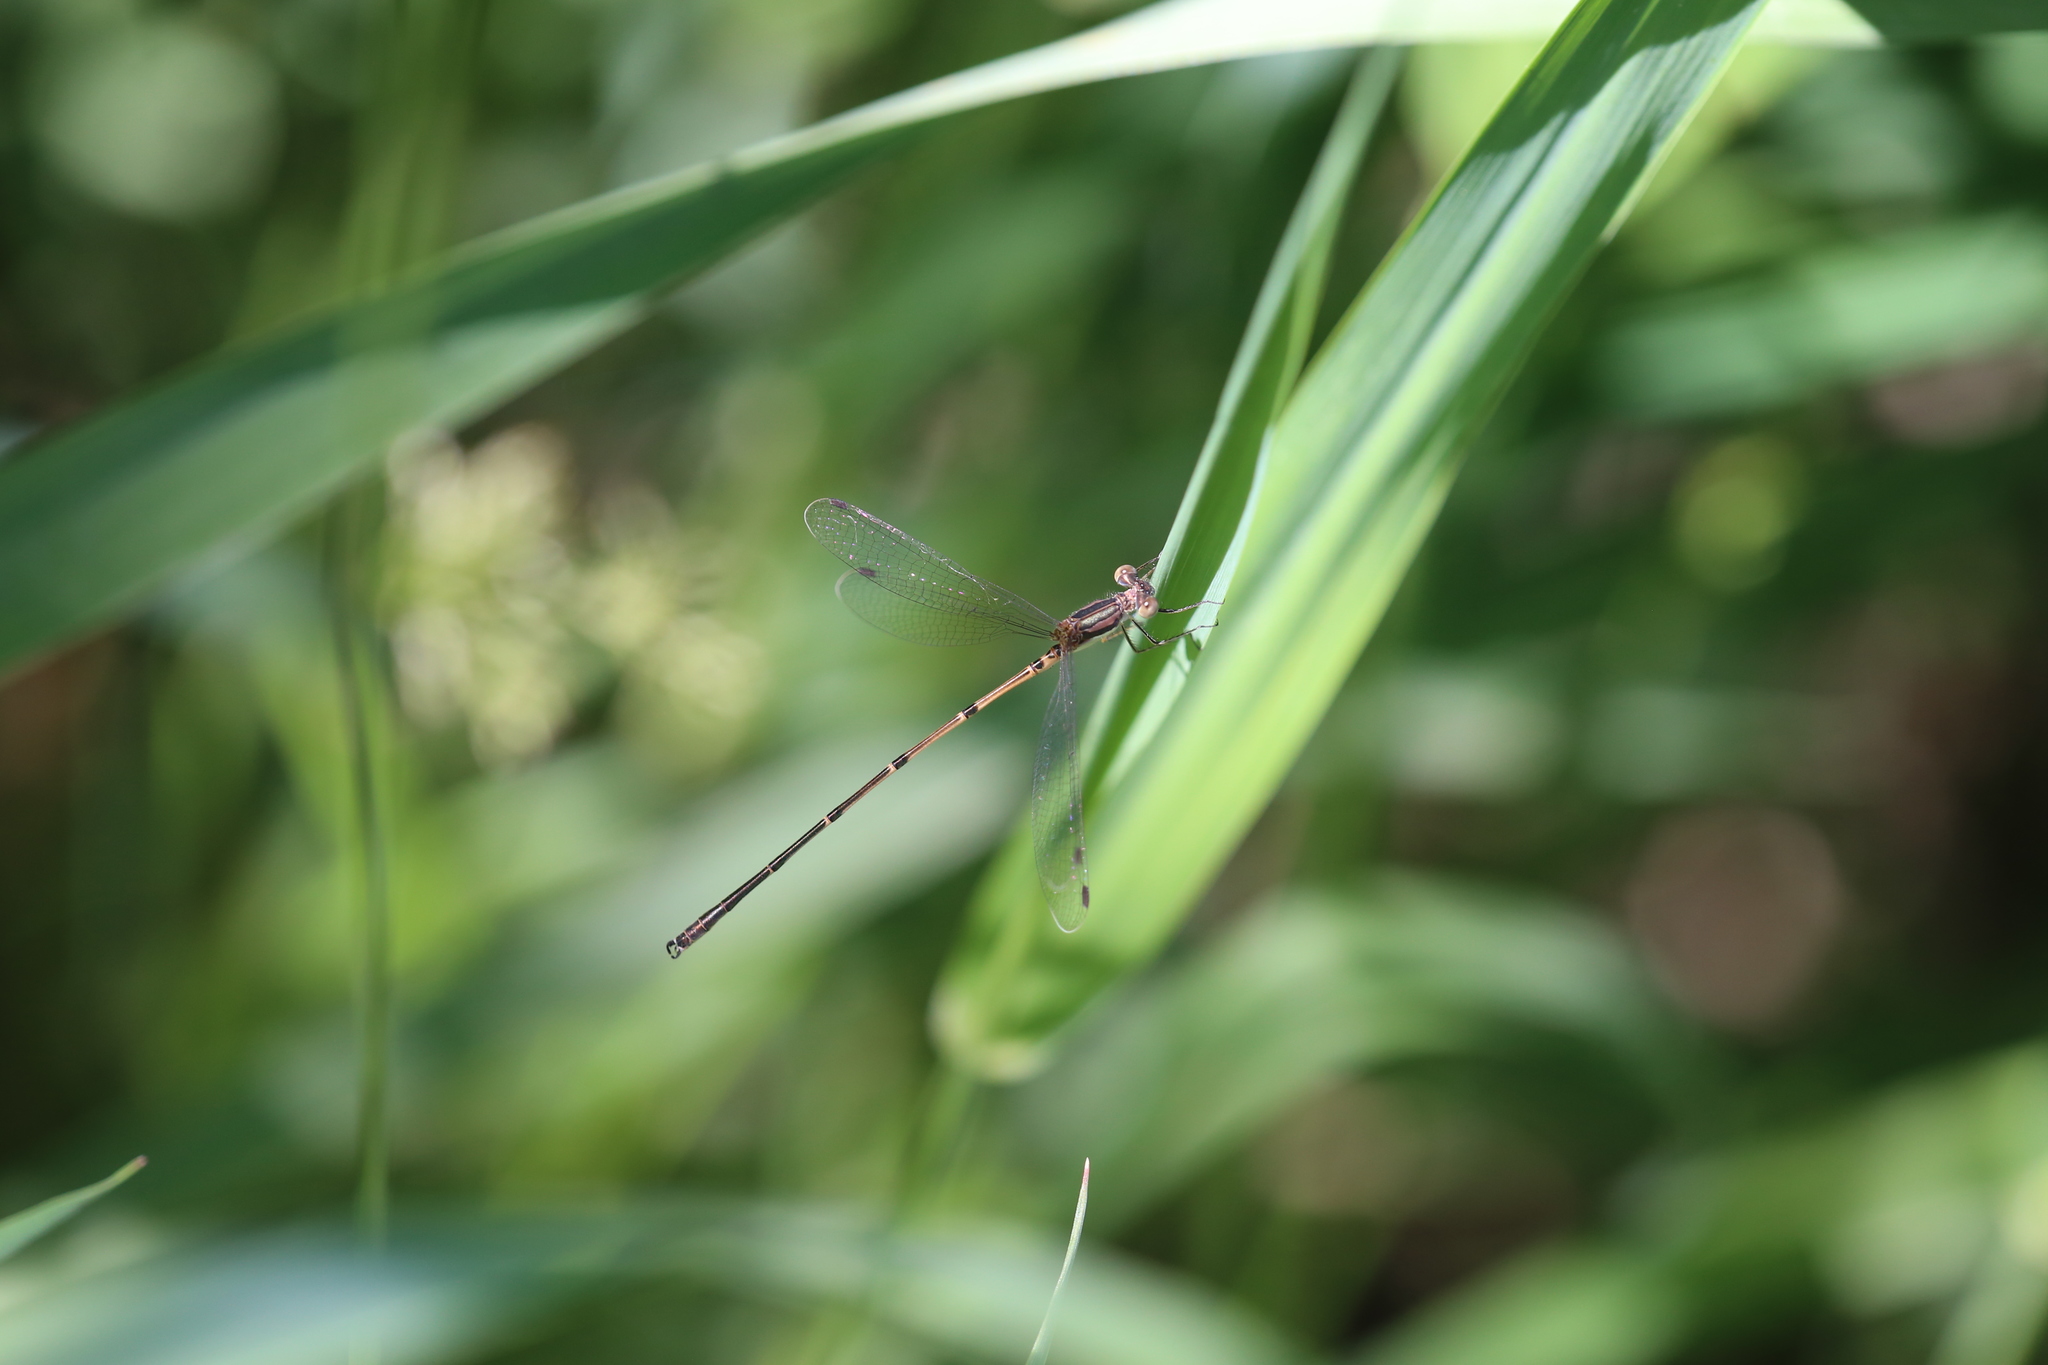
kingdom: Animalia
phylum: Arthropoda
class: Insecta
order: Odonata
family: Lestidae
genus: Lestes
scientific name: Lestes rectangularis
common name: Slender spreadwing
